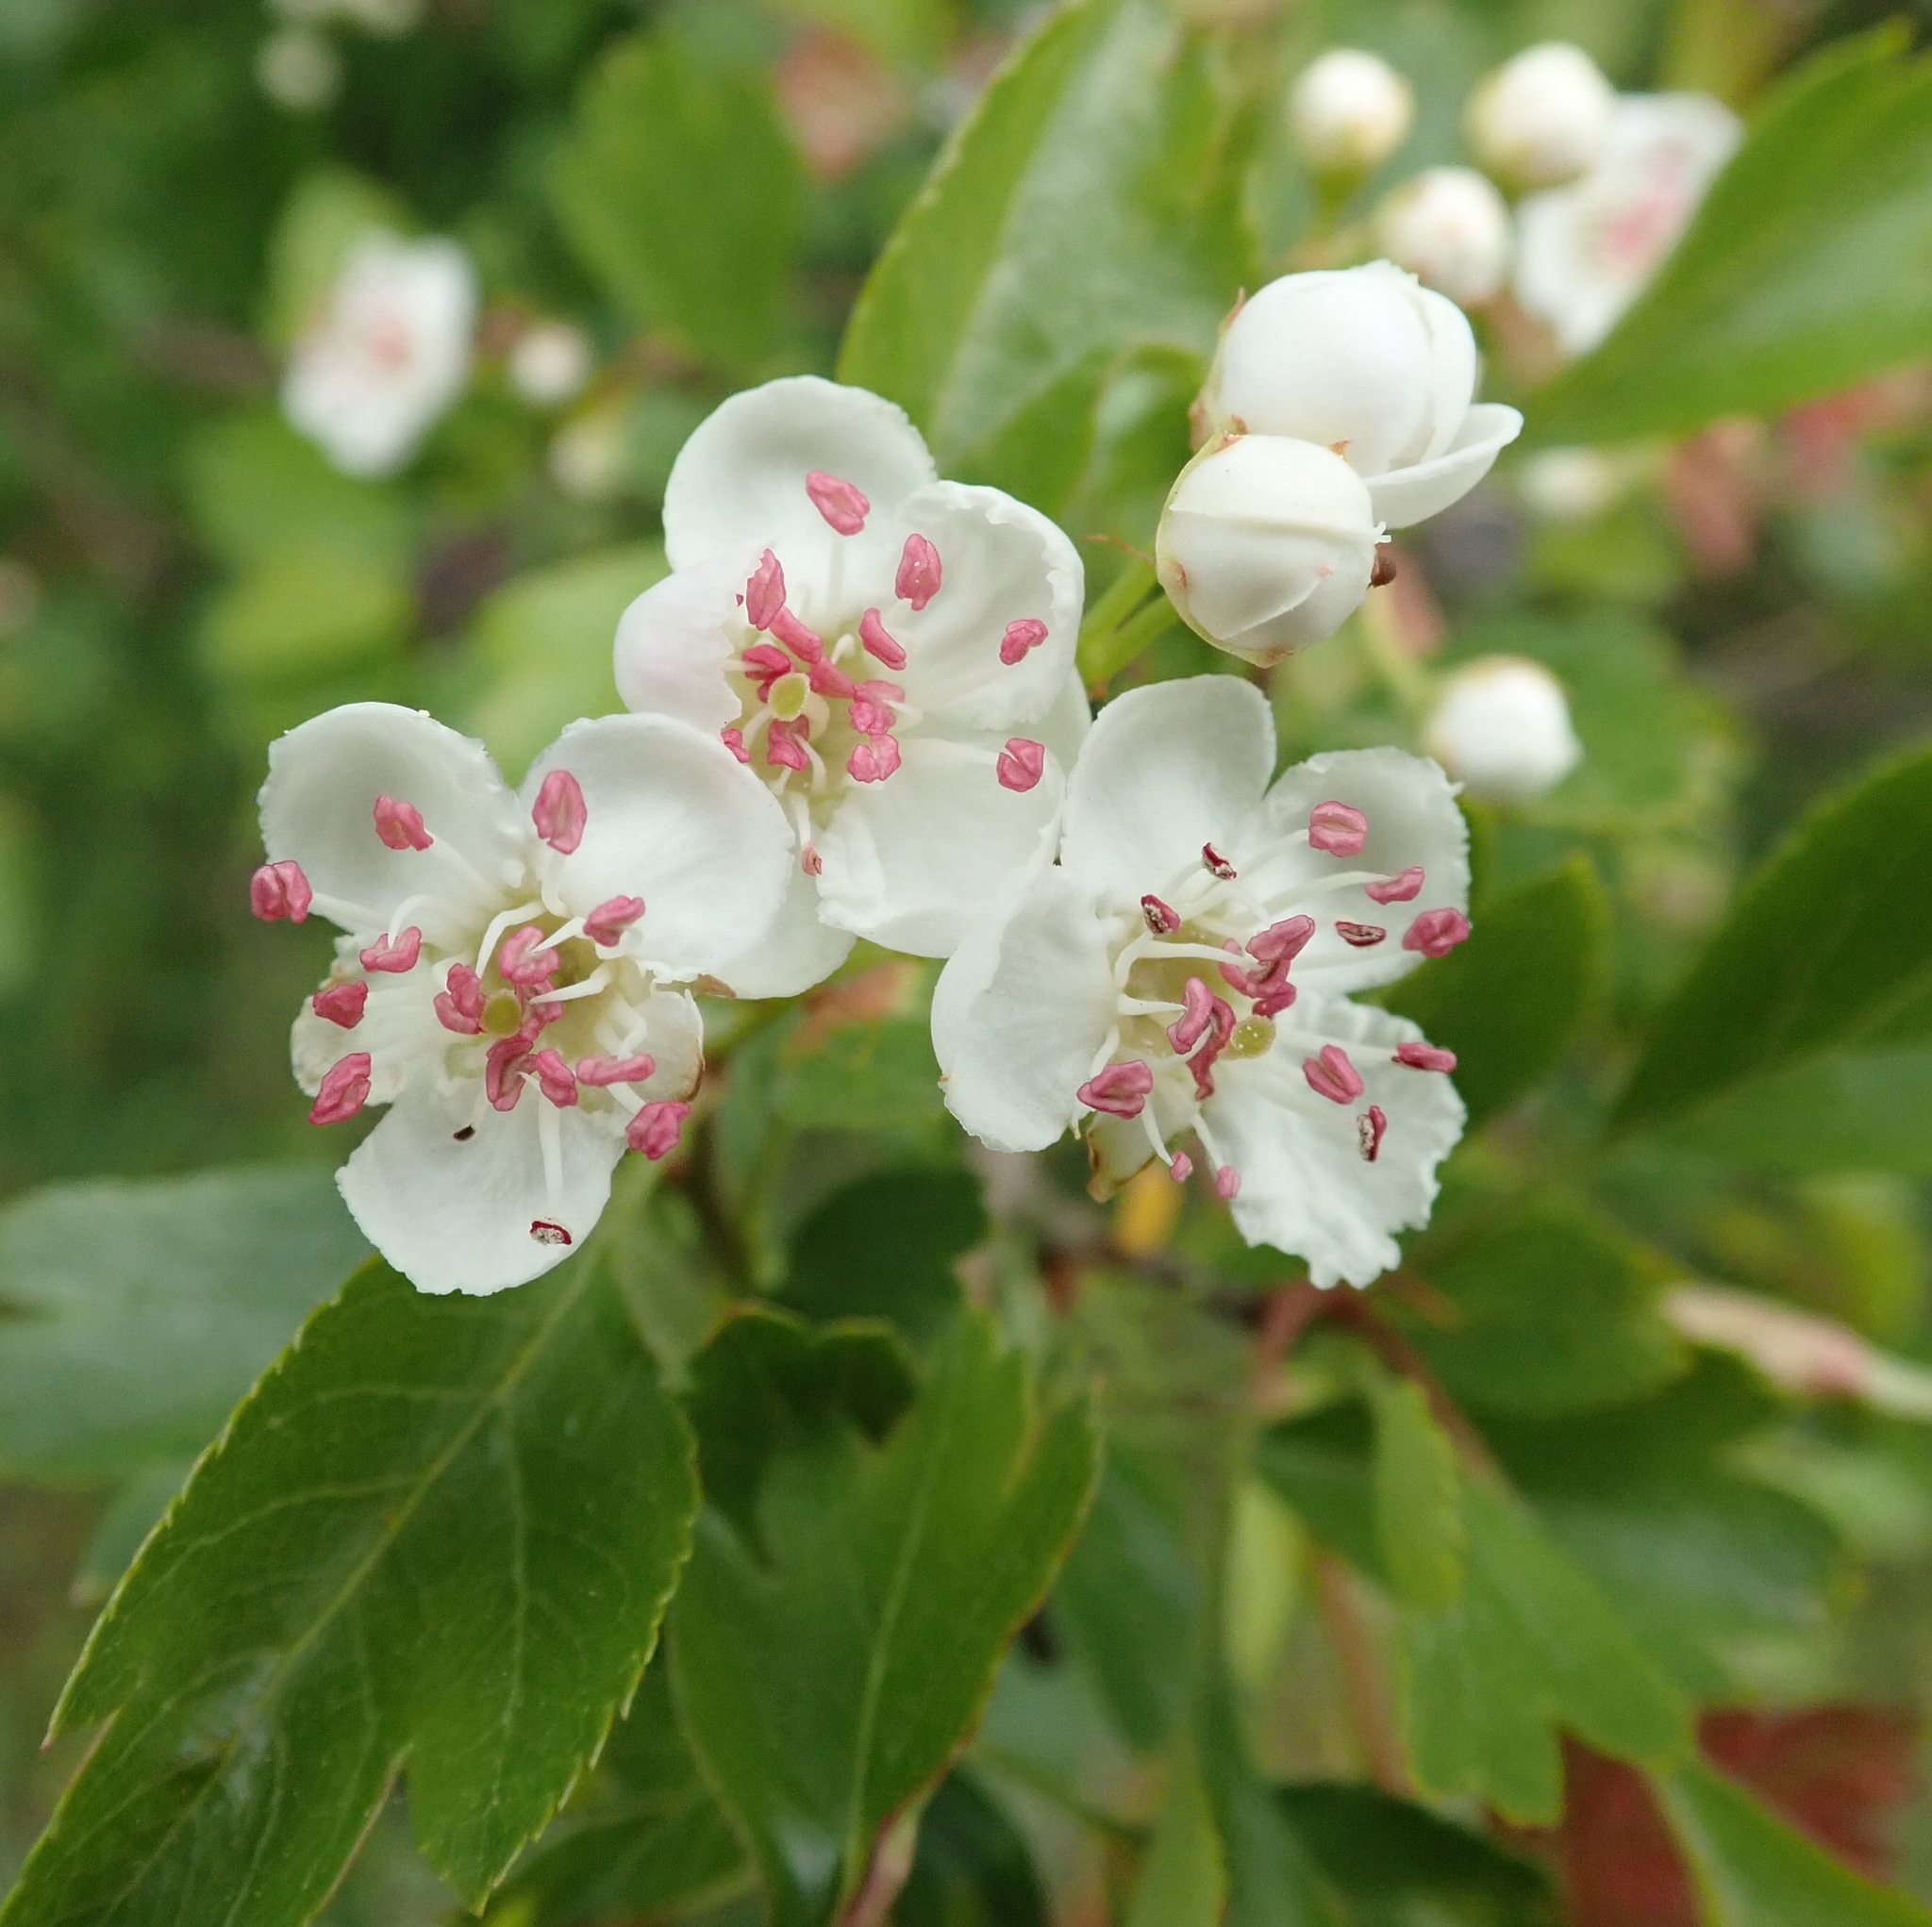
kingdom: Plantae
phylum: Tracheophyta
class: Magnoliopsida
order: Rosales
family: Rosaceae
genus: Crataegus
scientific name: Crataegus monogyna
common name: Hawthorn
